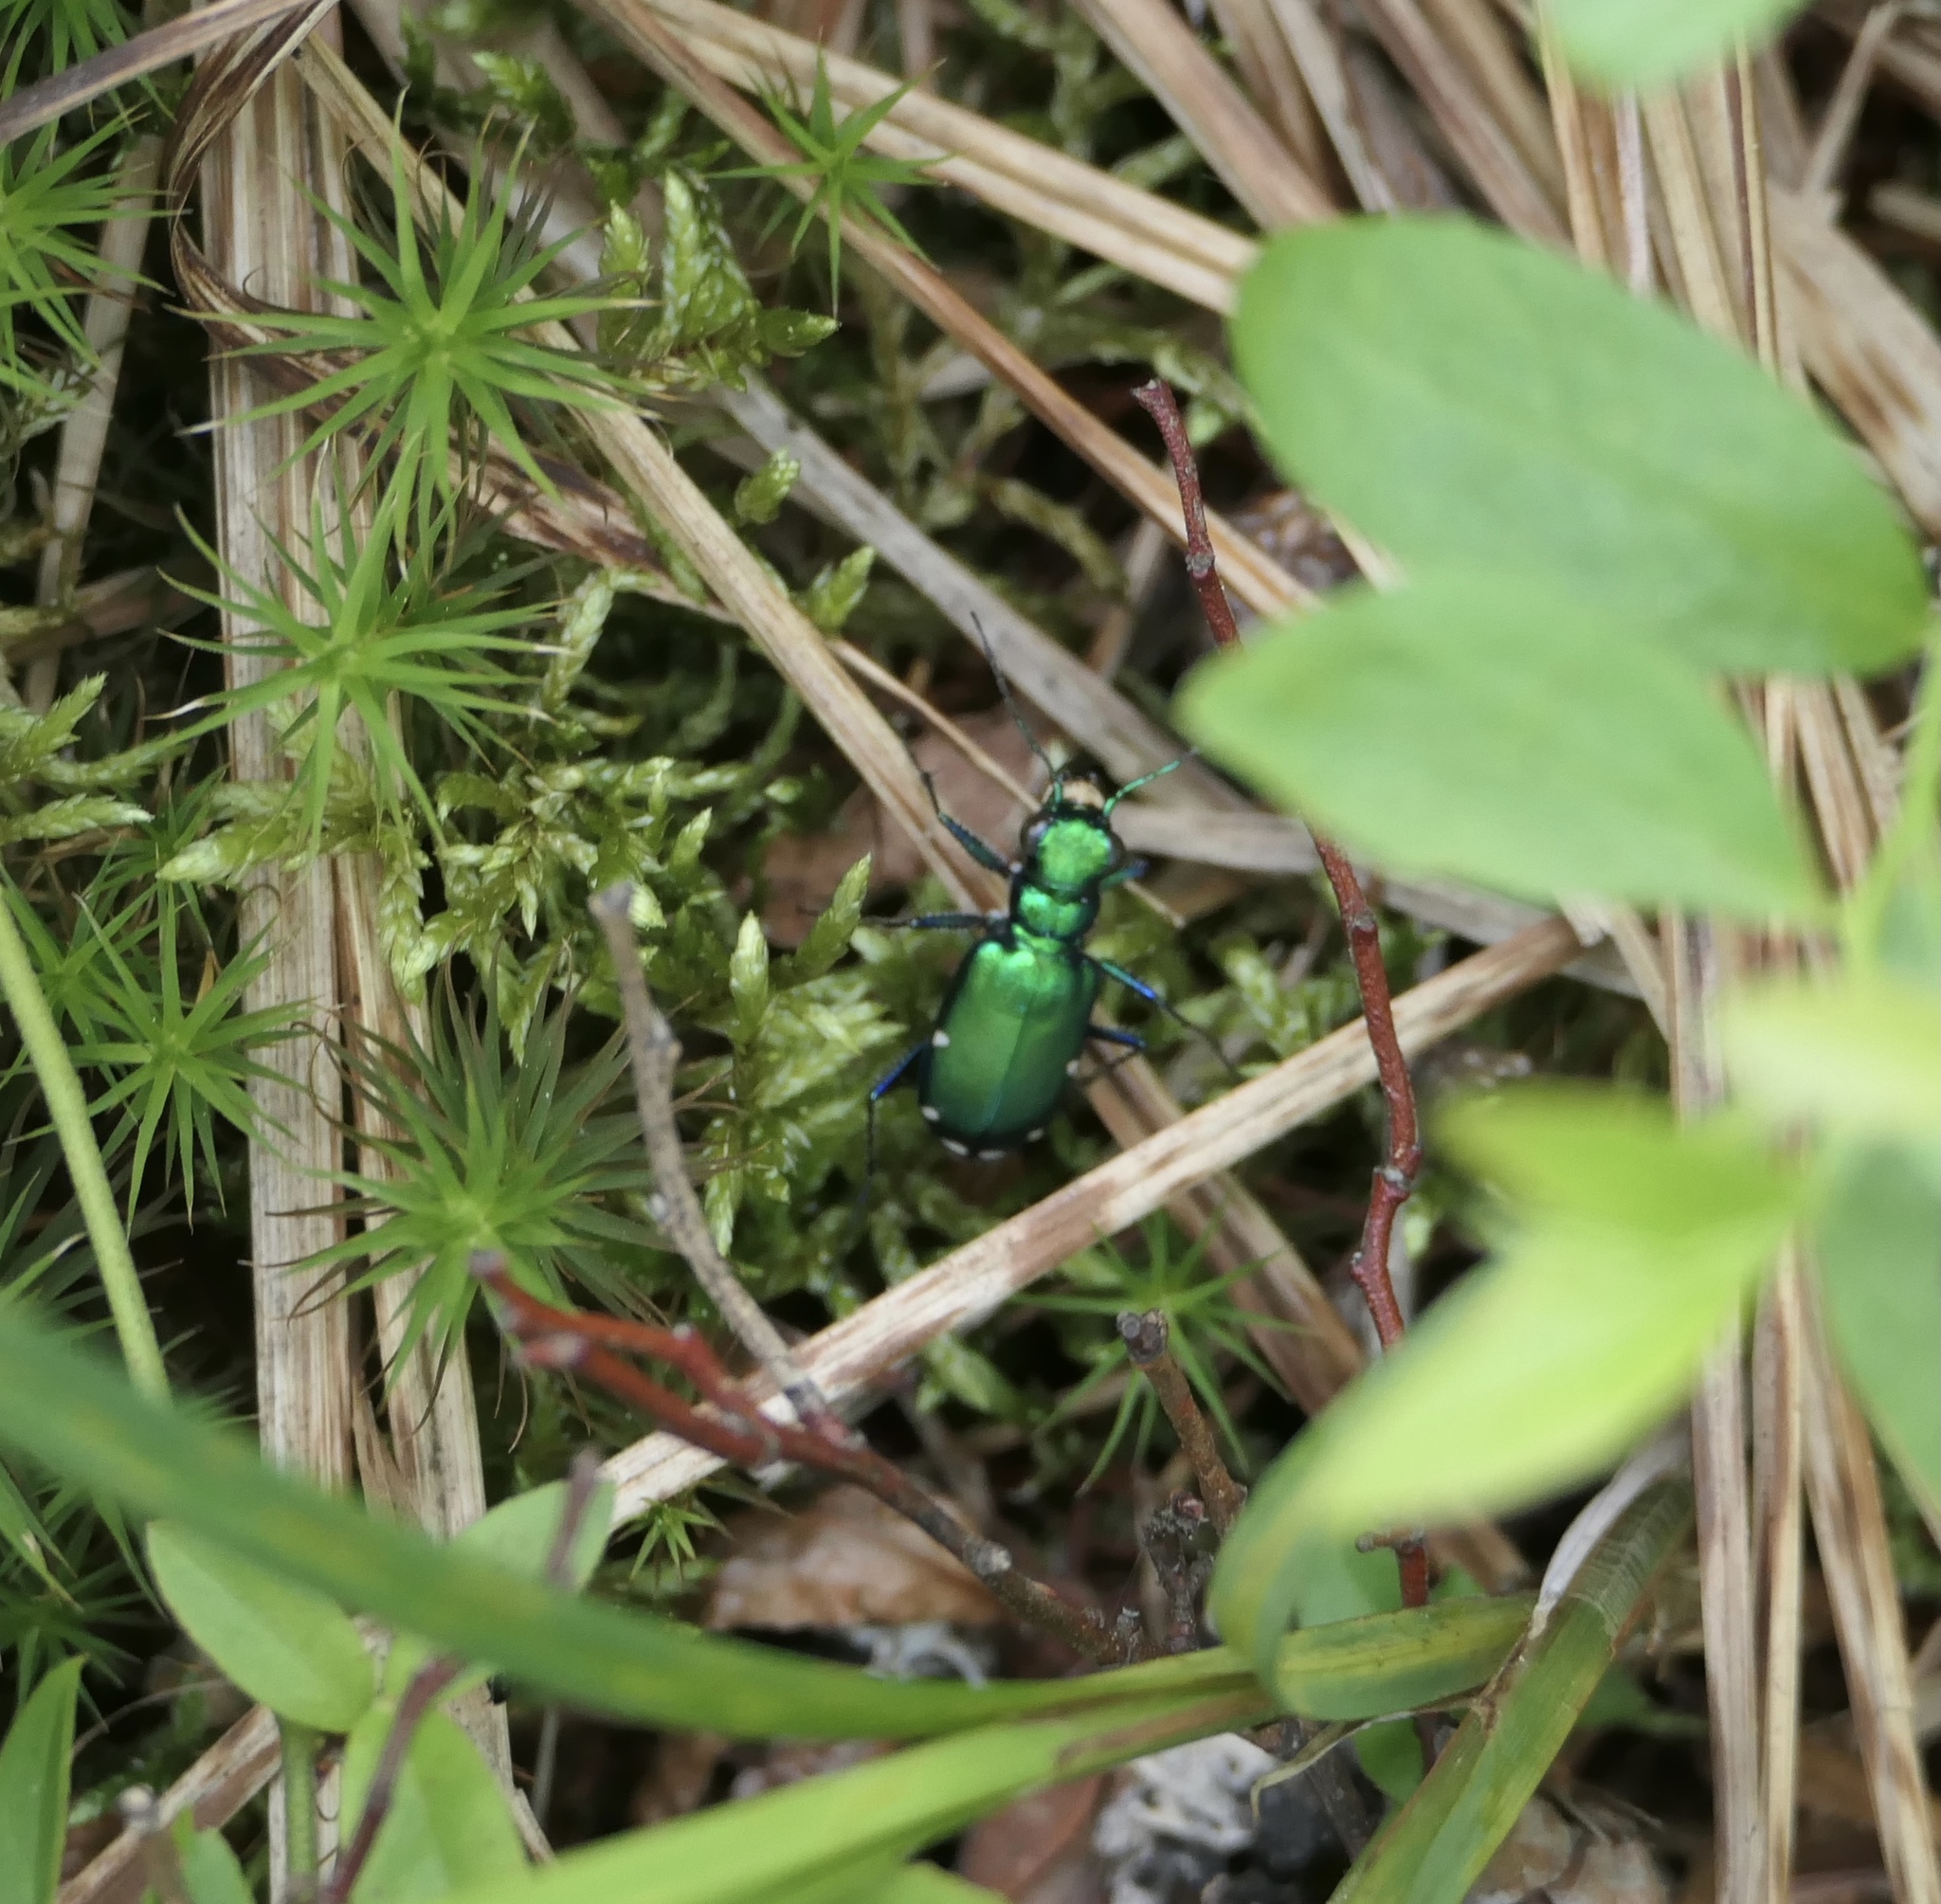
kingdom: Animalia
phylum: Arthropoda
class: Insecta
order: Coleoptera
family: Carabidae
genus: Cicindela
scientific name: Cicindela sexguttata
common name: Six-spotted tiger beetle
